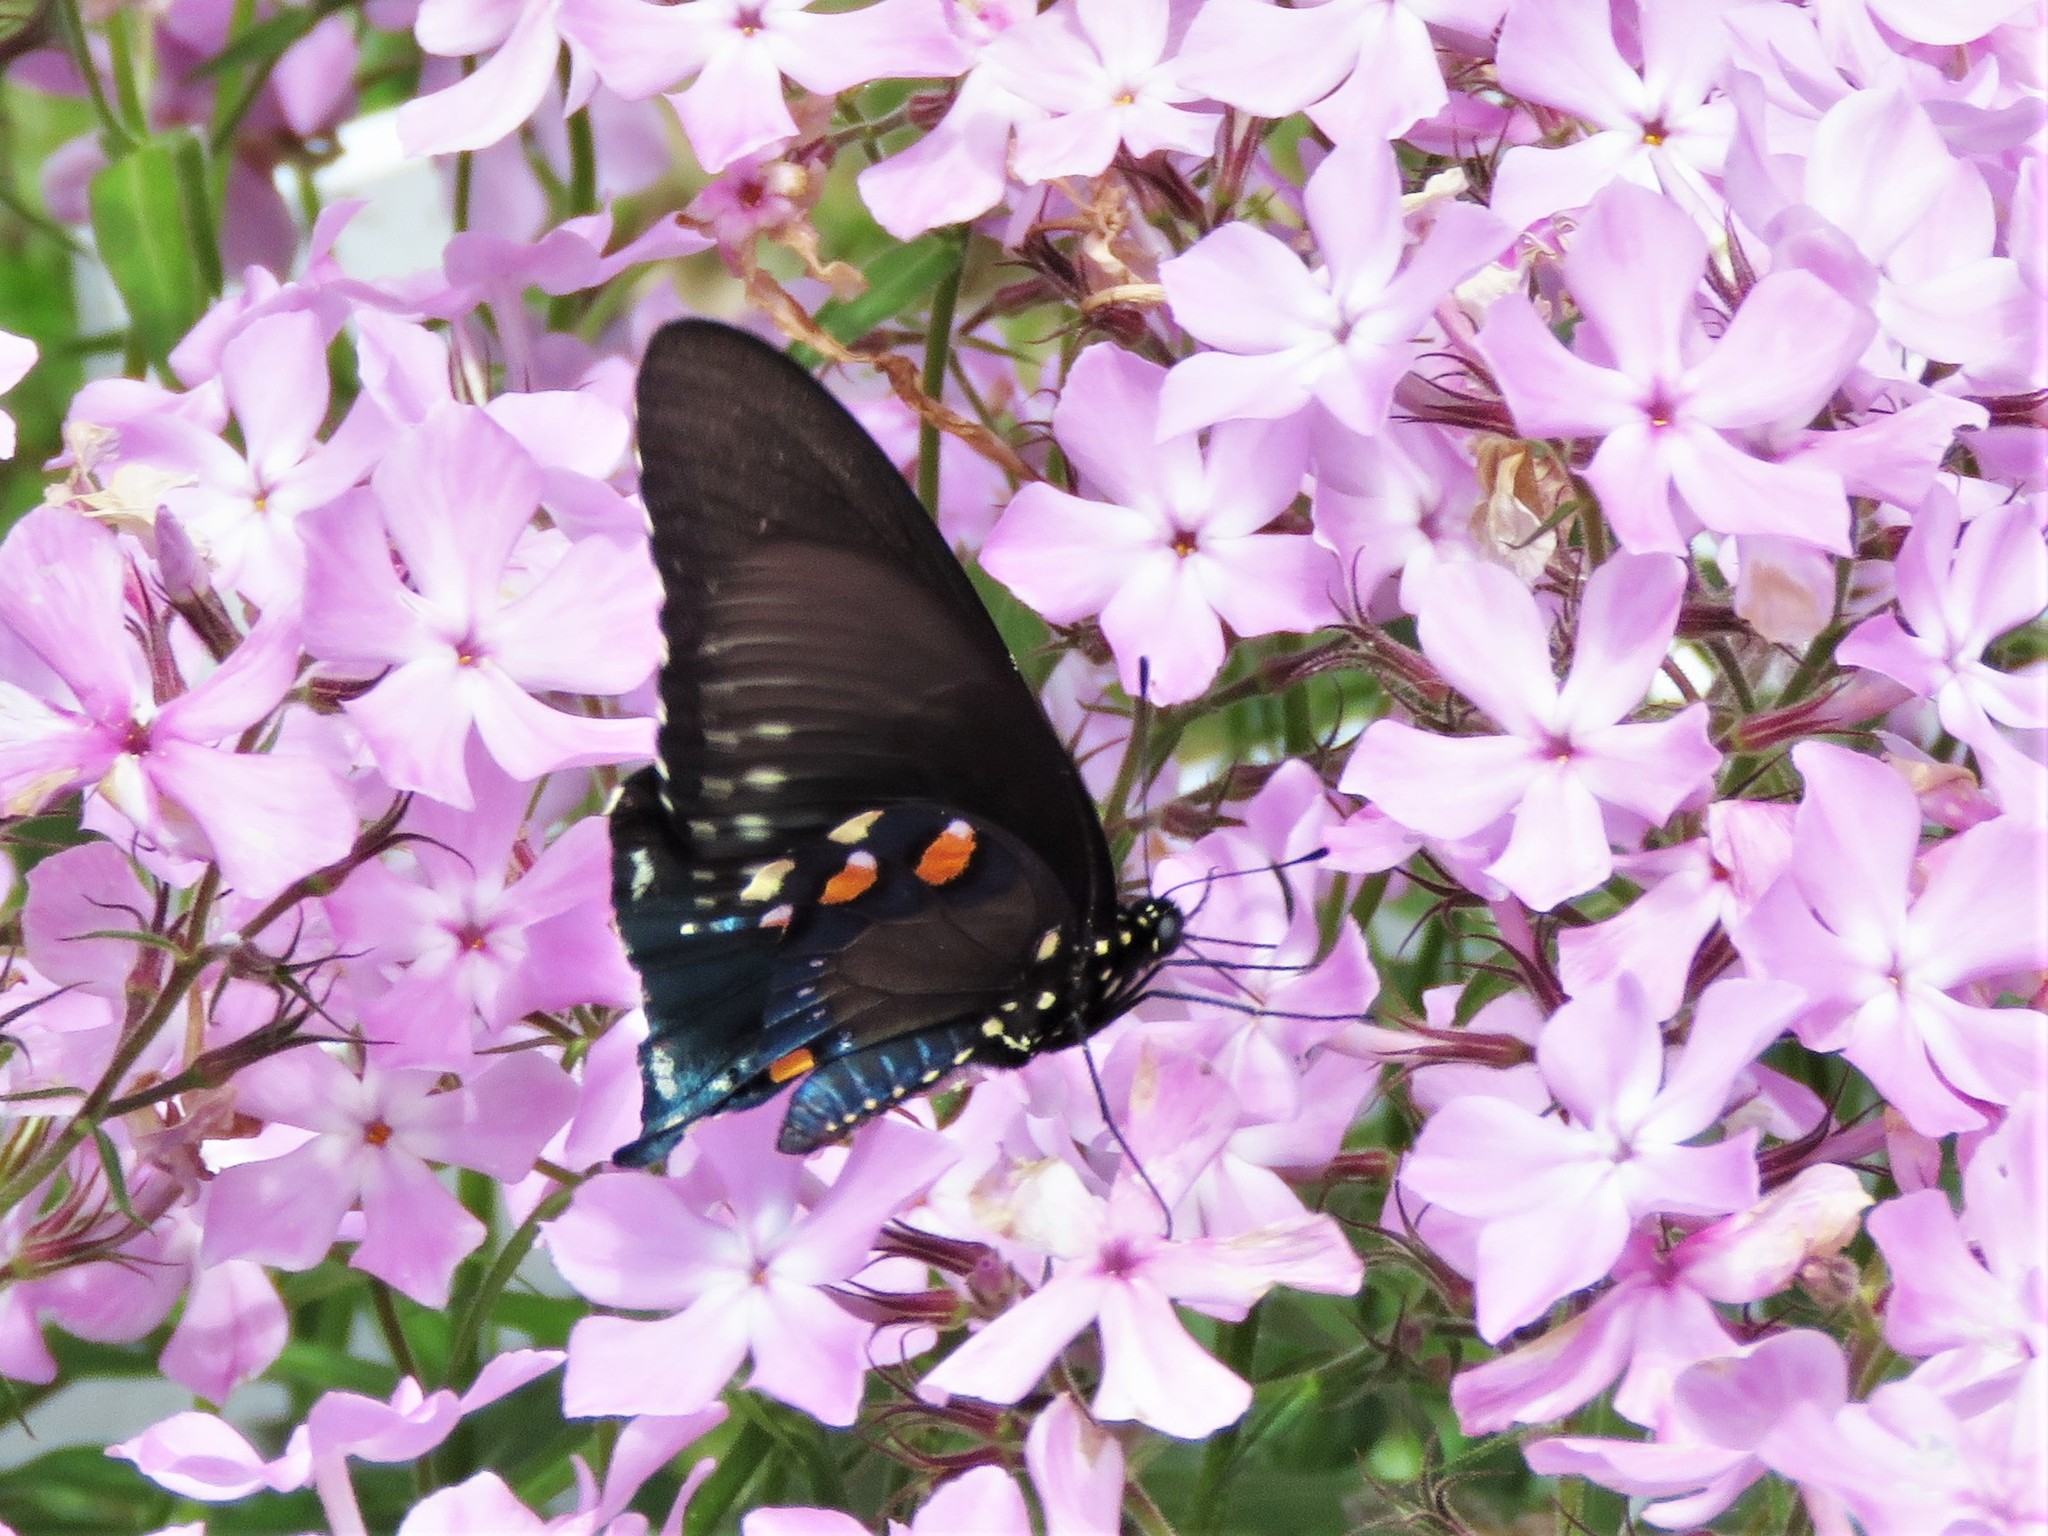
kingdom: Animalia
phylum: Arthropoda
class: Insecta
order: Lepidoptera
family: Papilionidae
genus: Battus
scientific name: Battus philenor
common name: Pipevine swallowtail
